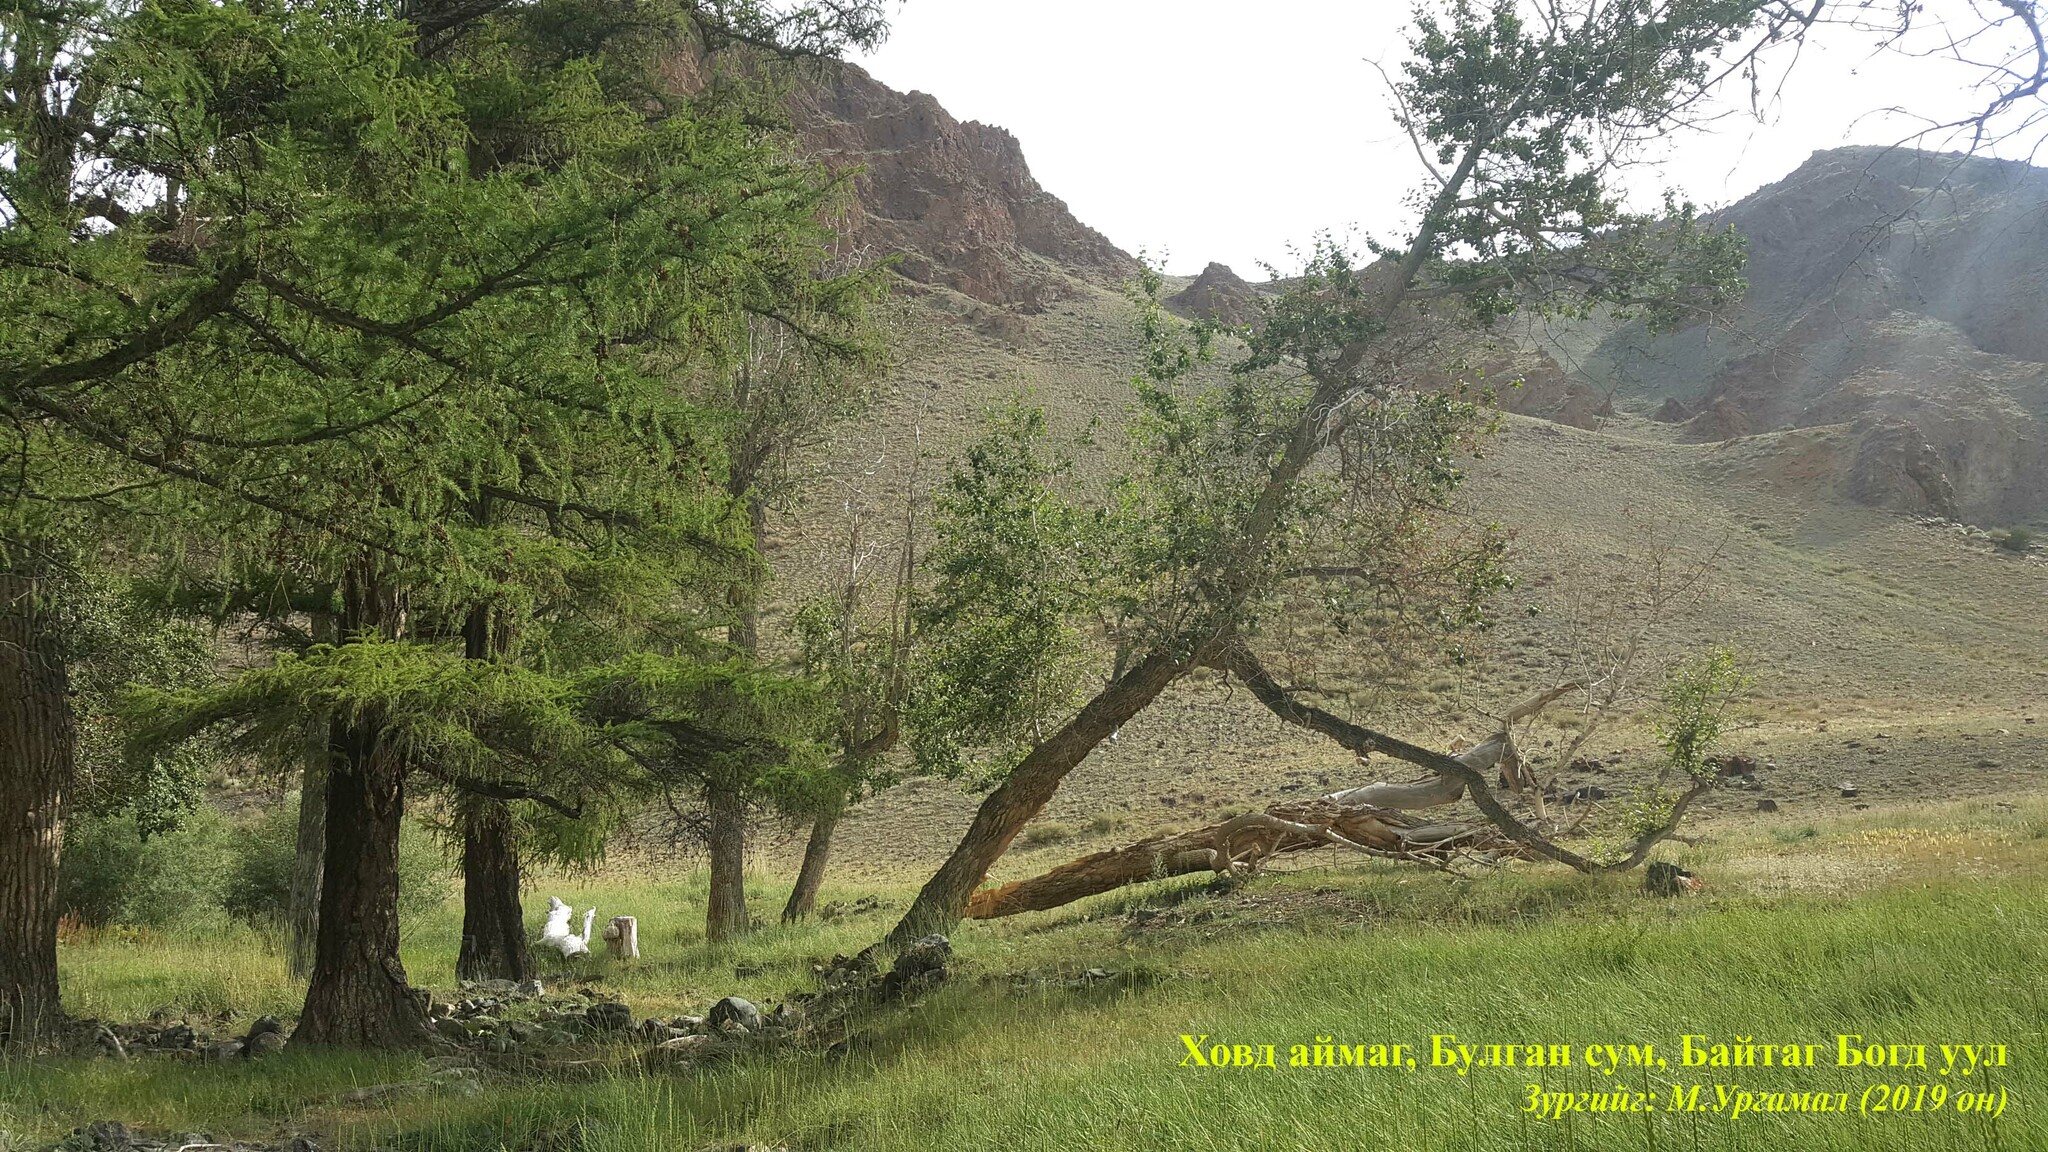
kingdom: Plantae
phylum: Tracheophyta
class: Pinopsida
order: Pinales
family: Pinaceae
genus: Larix
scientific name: Larix sibirica
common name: Siberian larch
